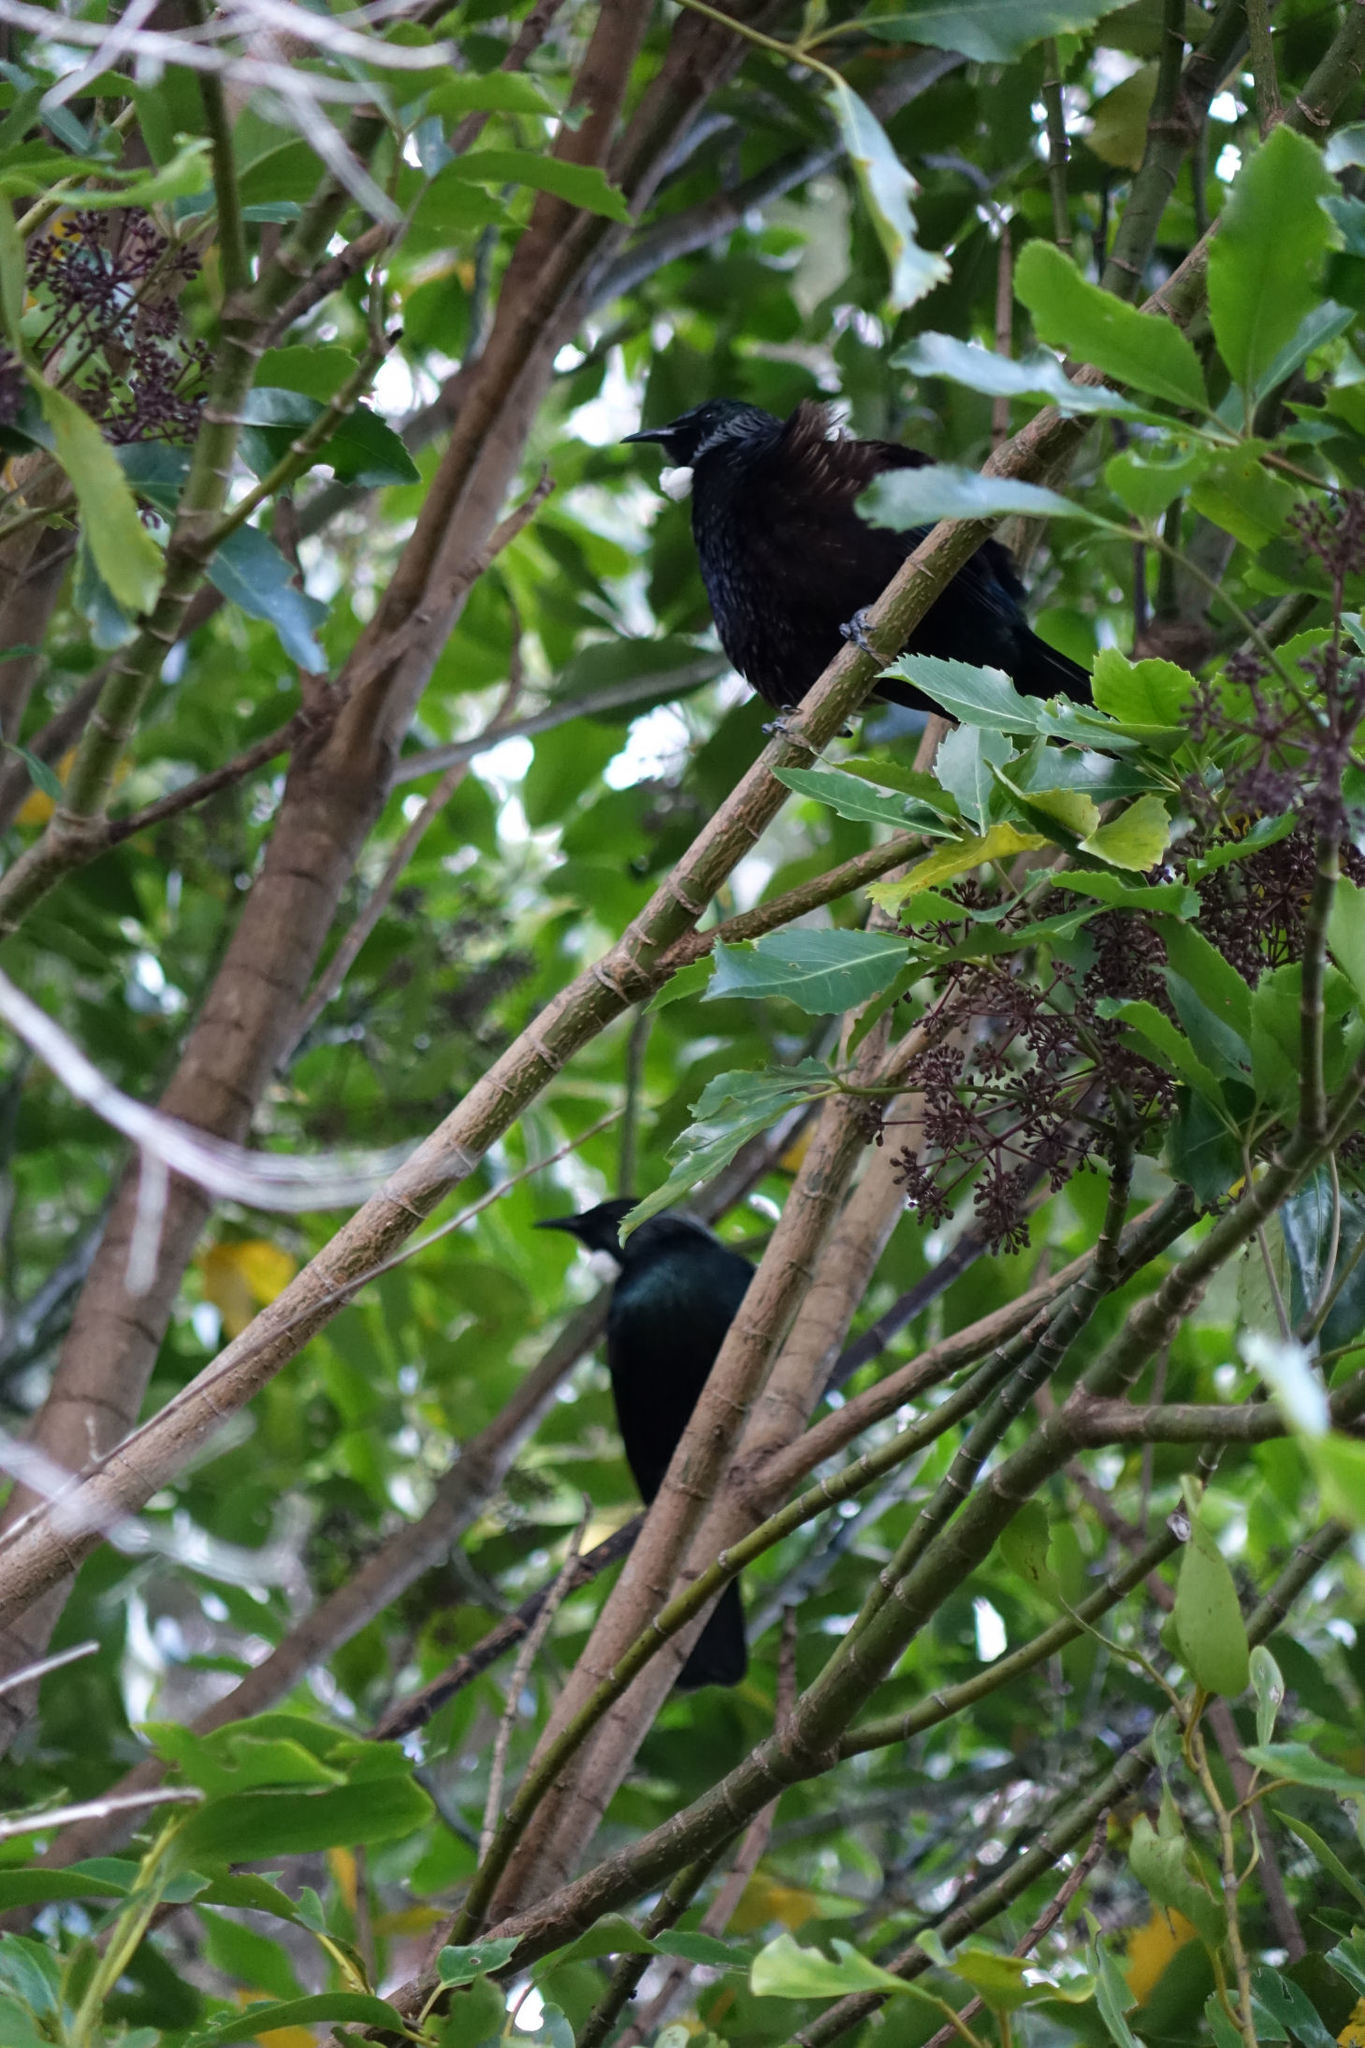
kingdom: Animalia
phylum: Chordata
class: Aves
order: Passeriformes
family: Meliphagidae
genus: Prosthemadera
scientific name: Prosthemadera novaeseelandiae
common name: Tui
